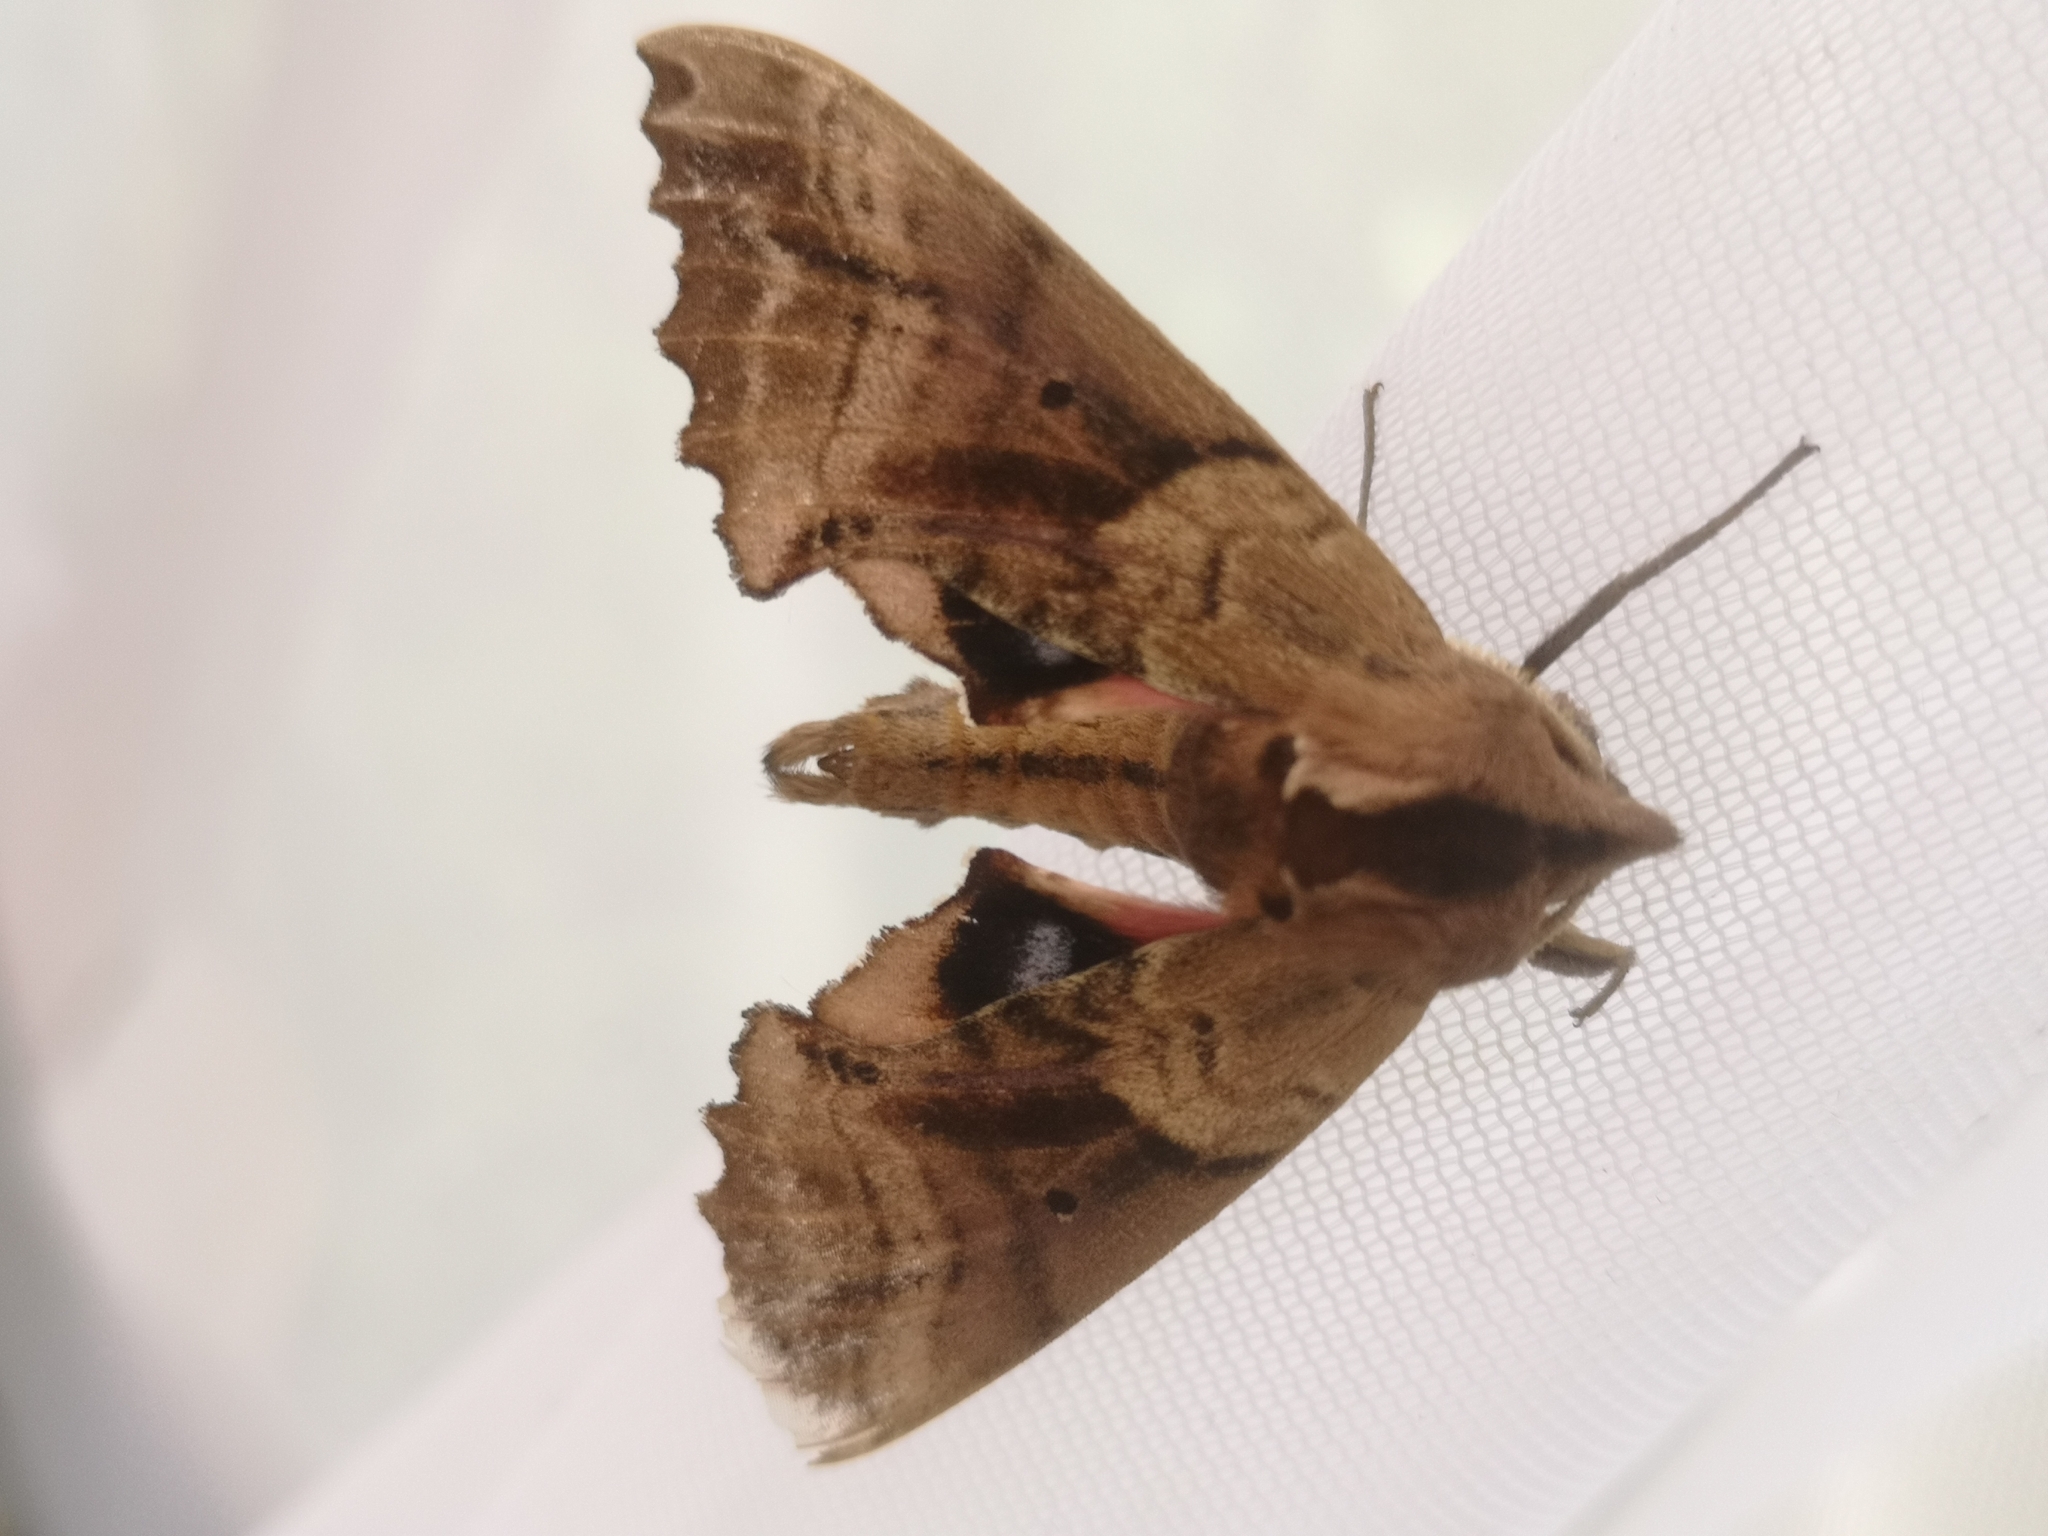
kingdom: Animalia
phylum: Arthropoda
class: Insecta
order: Lepidoptera
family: Sphingidae
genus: Paonias
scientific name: Paonias excaecata
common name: Blind-eyed sphinx
